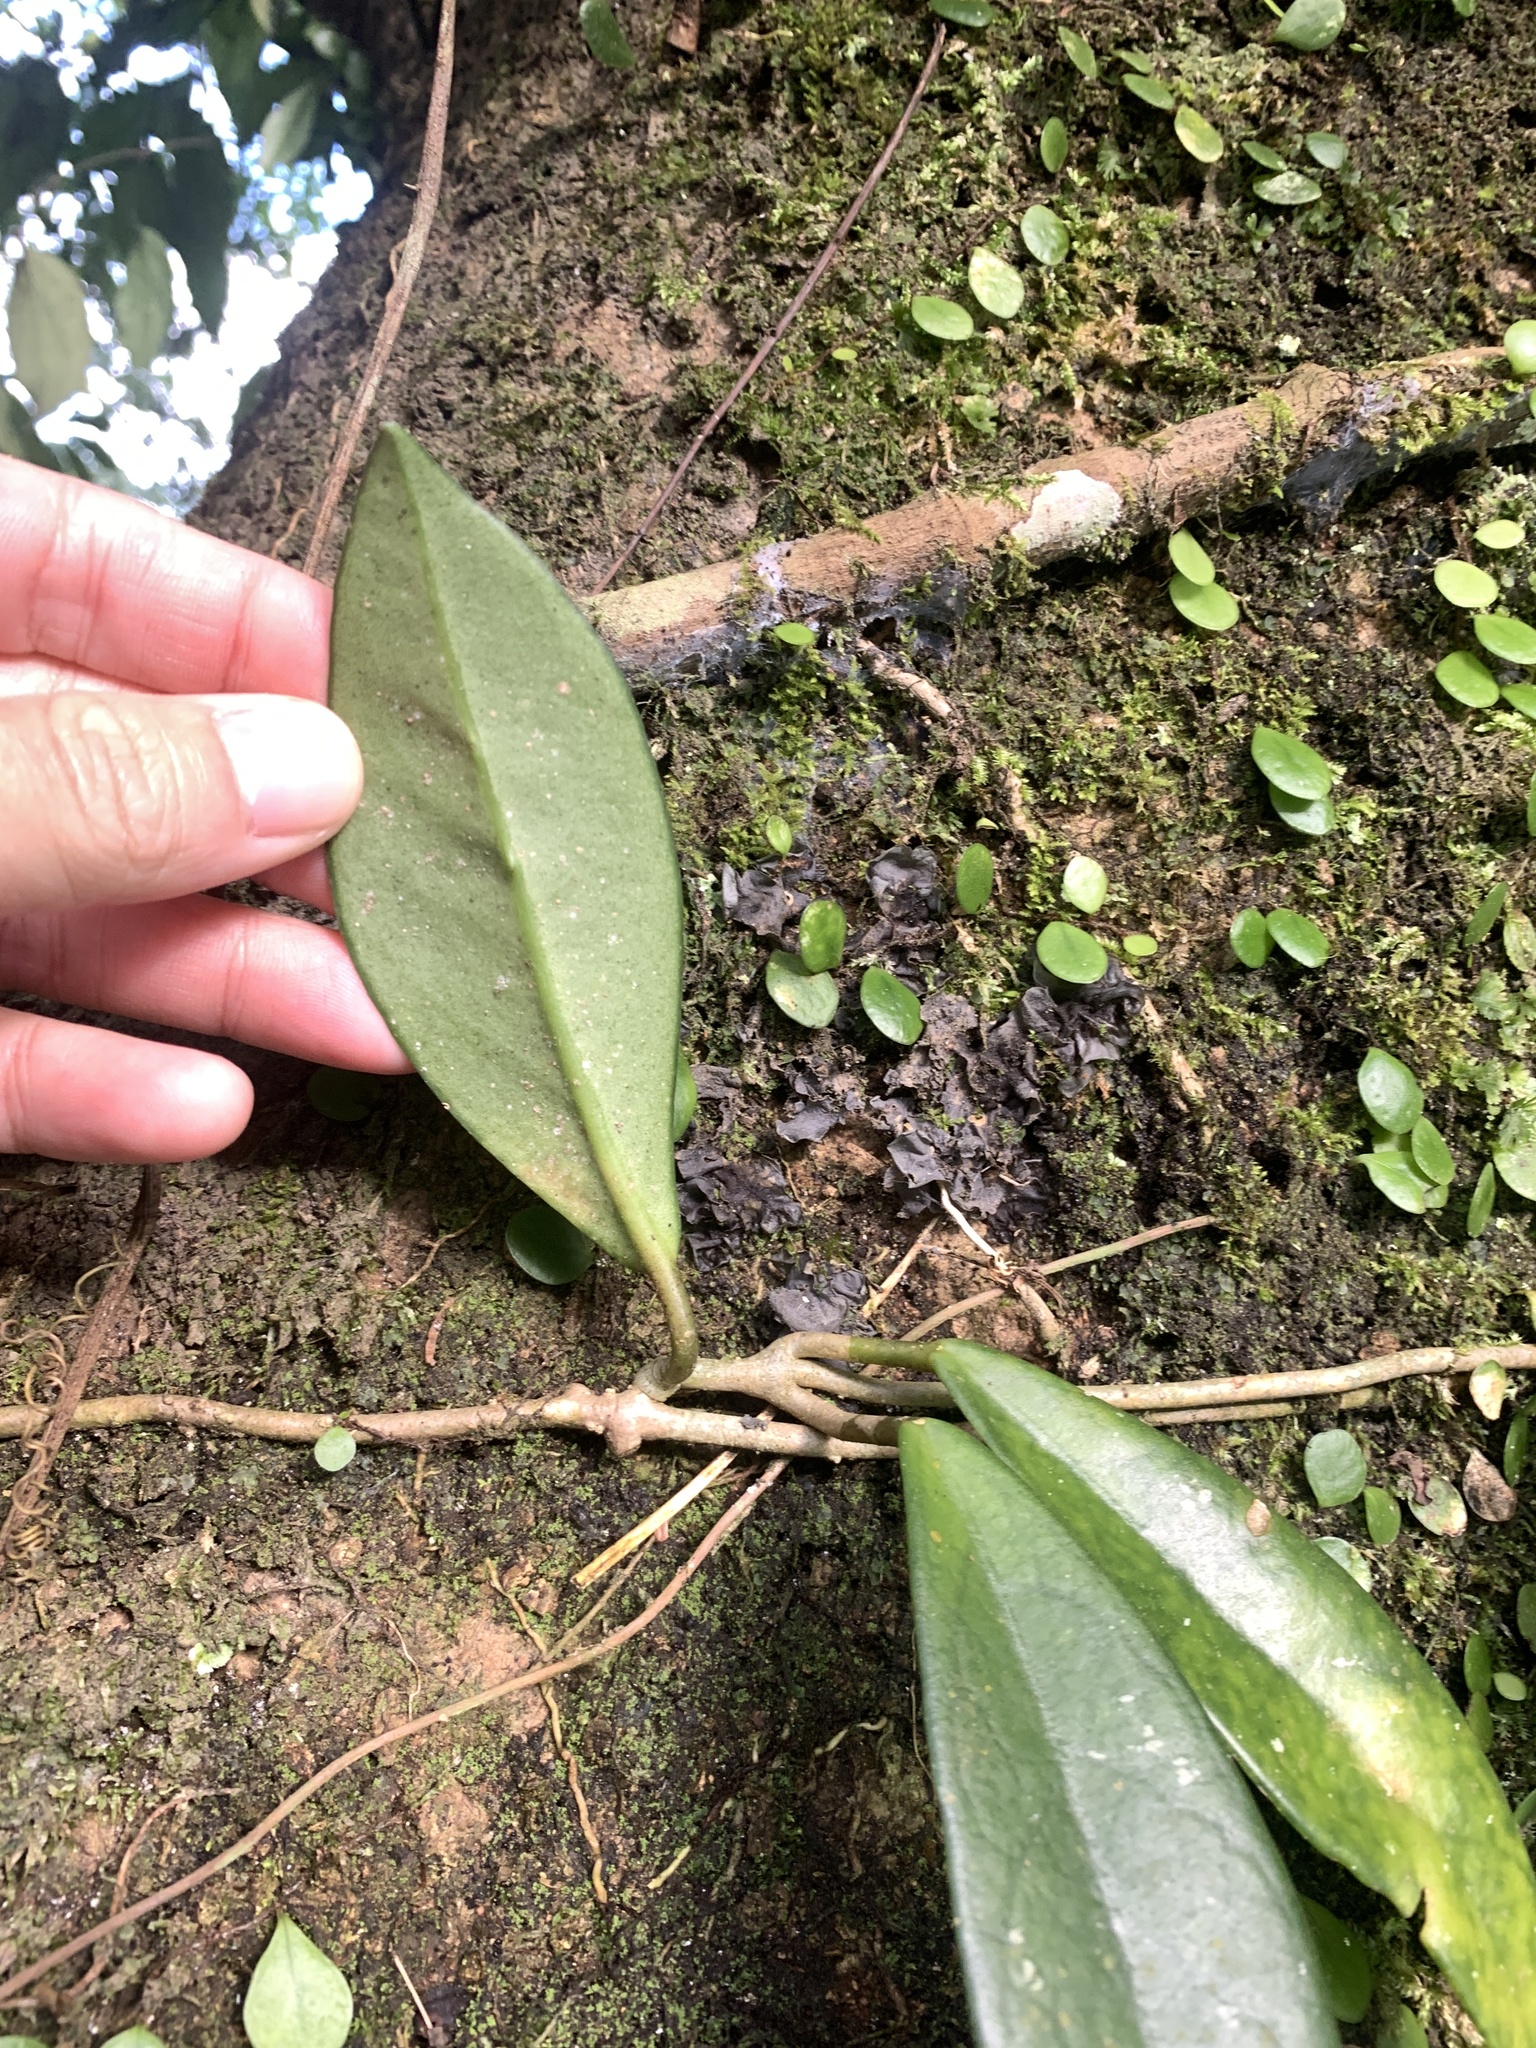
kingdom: Plantae
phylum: Tracheophyta
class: Magnoliopsida
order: Gentianales
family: Apocynaceae
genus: Hoya
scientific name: Hoya carnosa
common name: Honeyplant
